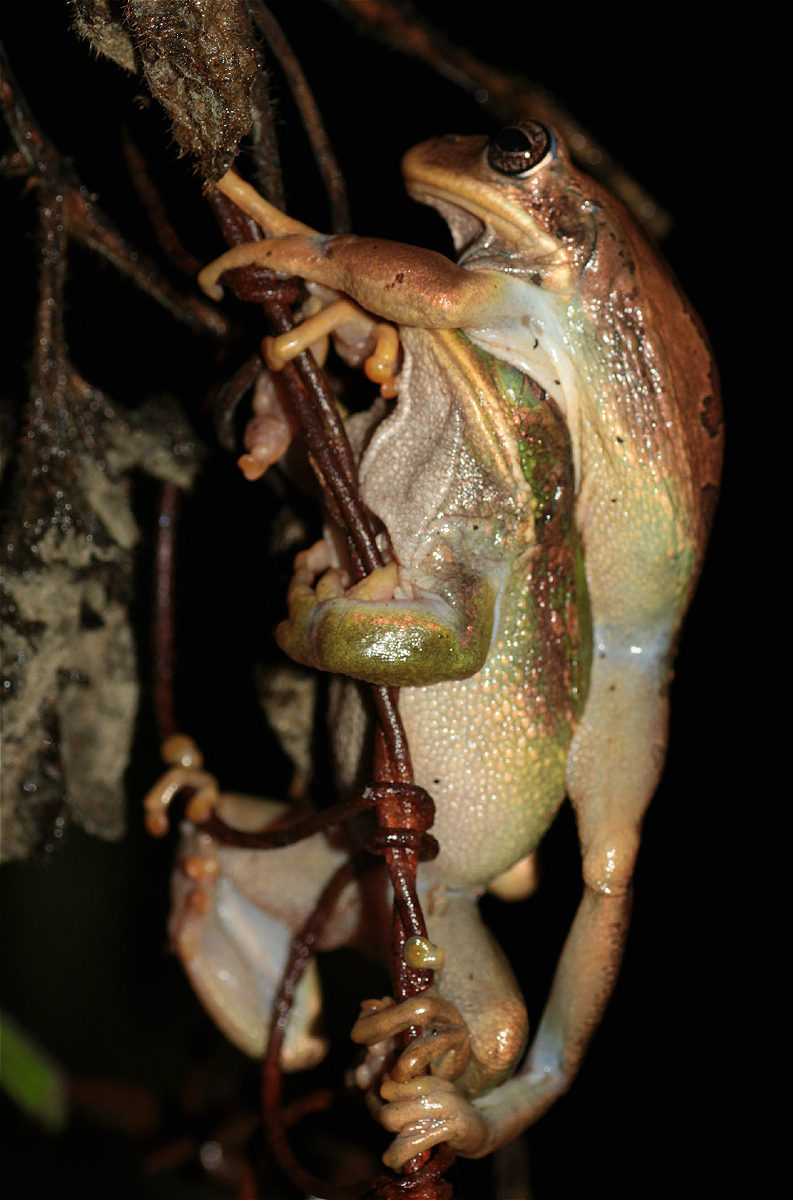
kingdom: Animalia
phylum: Chordata
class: Amphibia
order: Anura
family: Hemiphractidae
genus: Gastrotheca
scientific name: Gastrotheca cuencana
